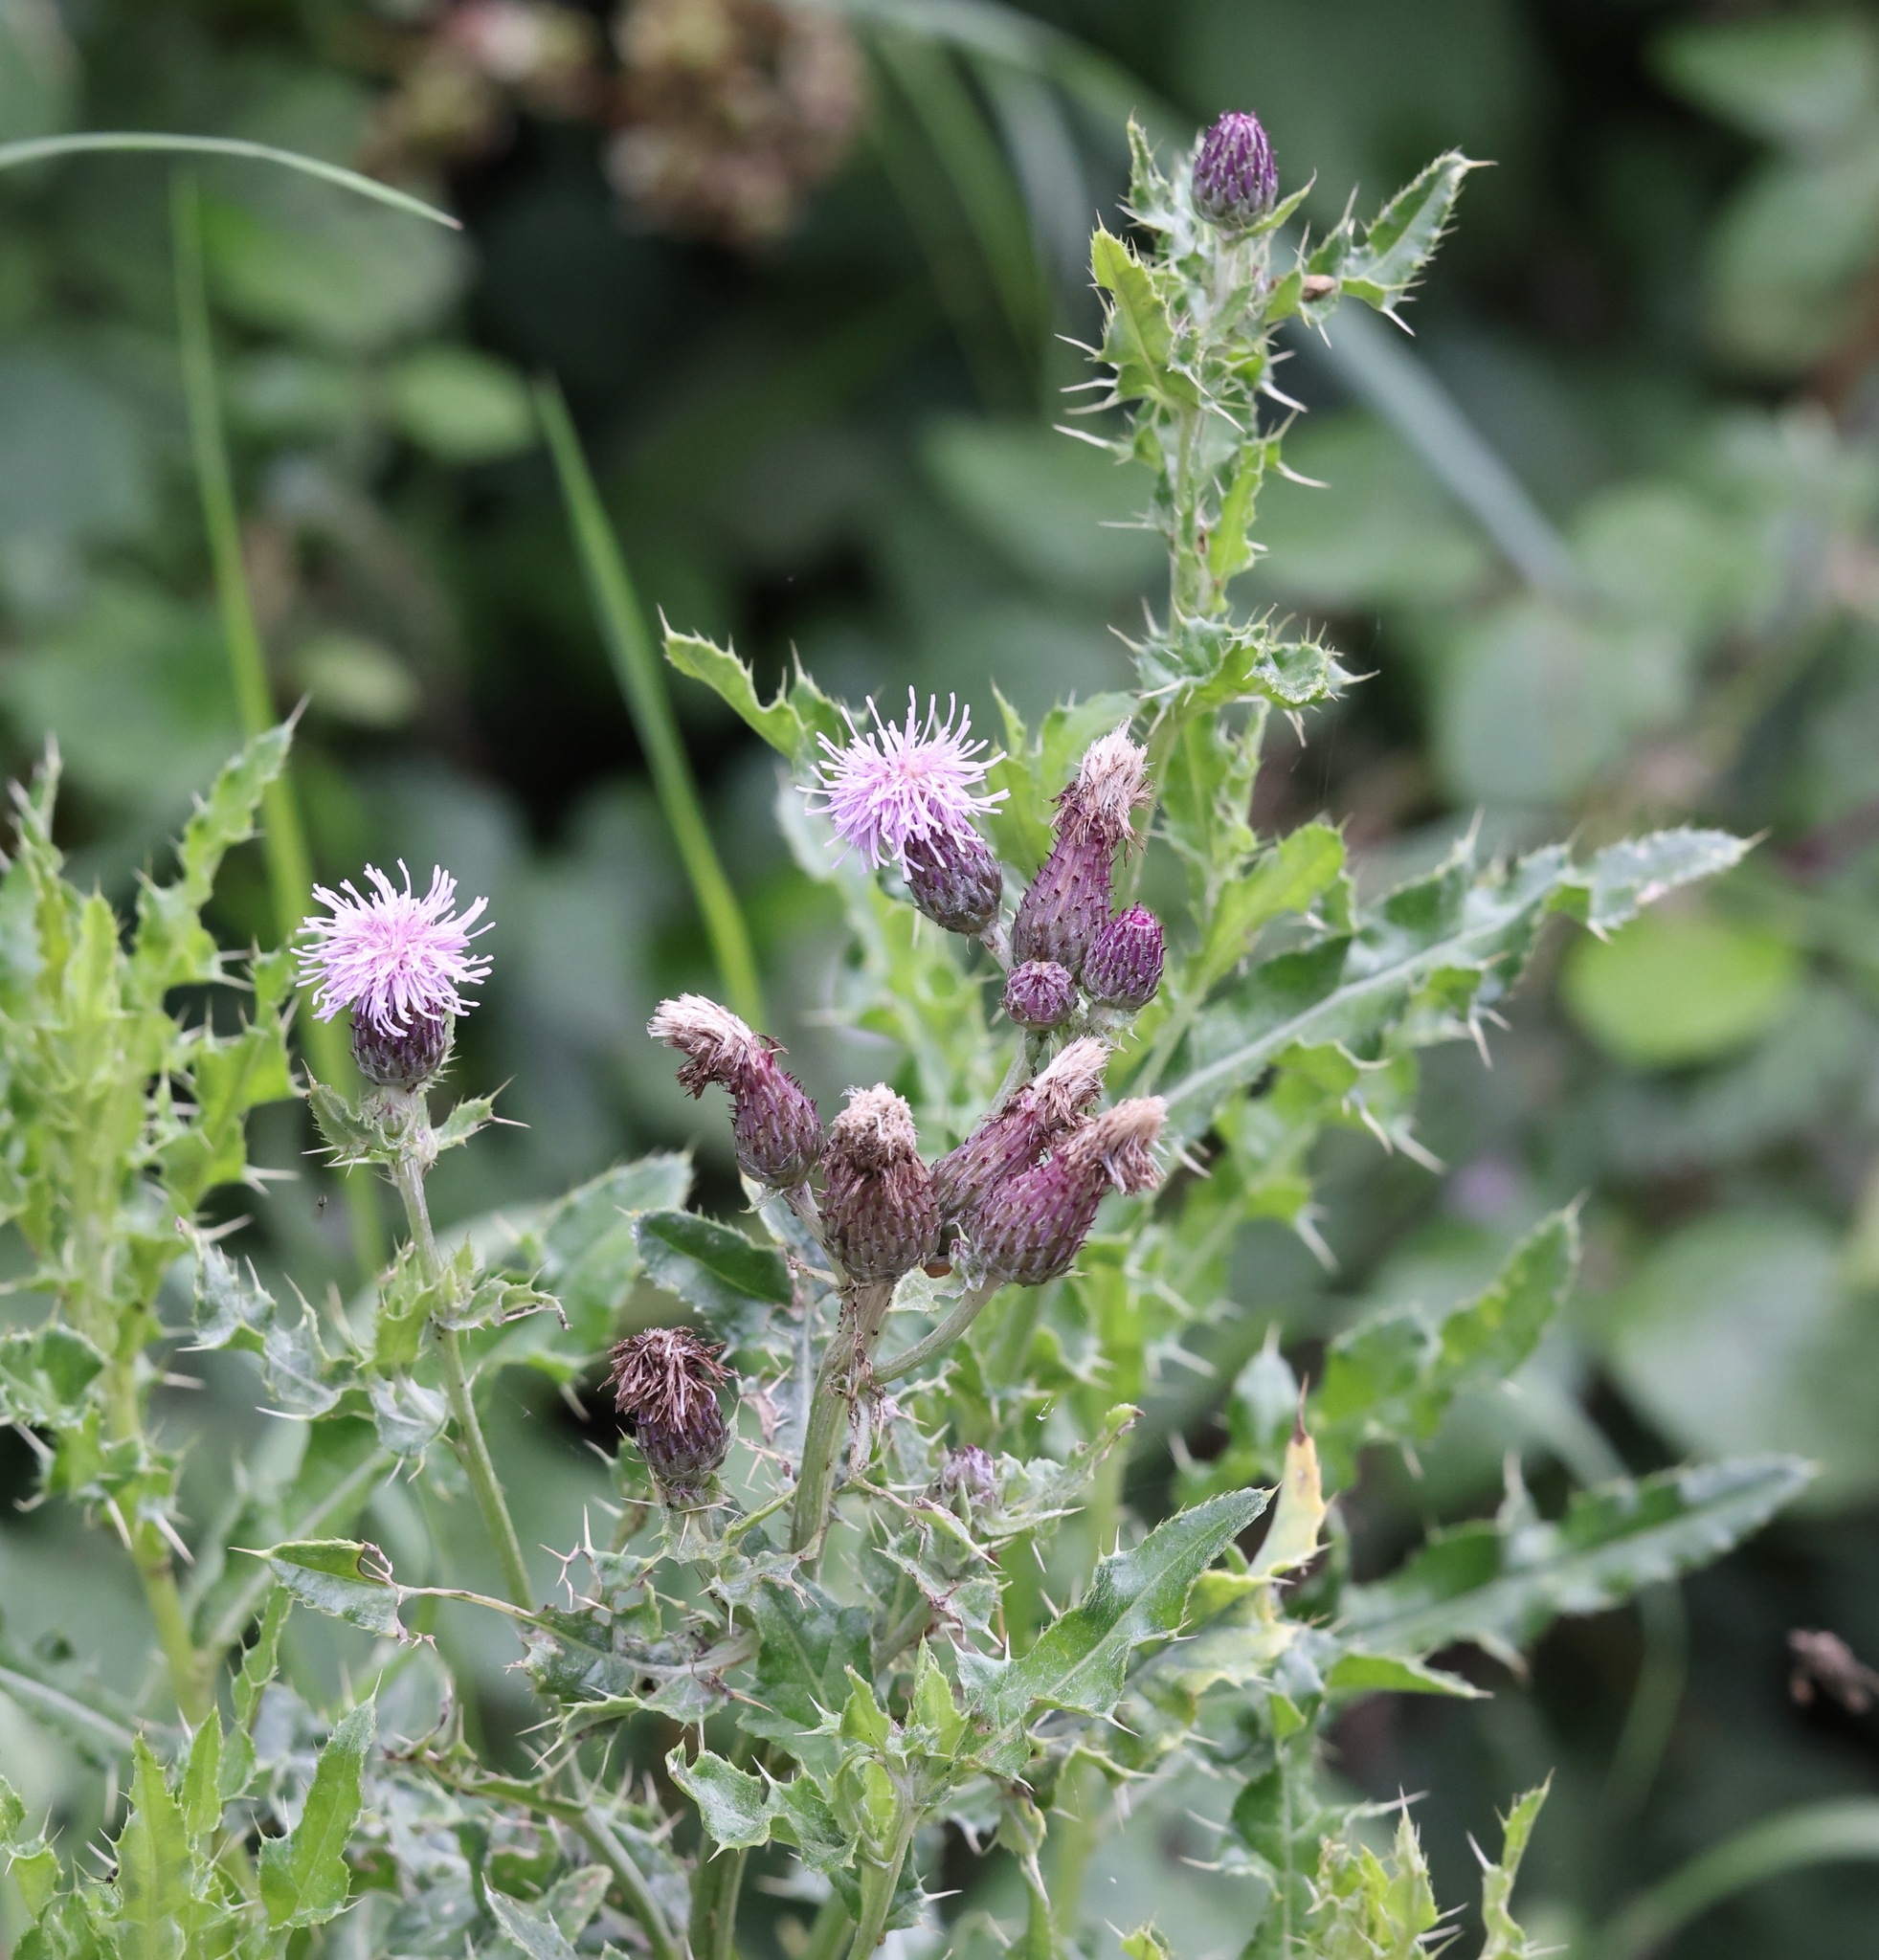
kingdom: Plantae
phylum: Tracheophyta
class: Magnoliopsida
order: Asterales
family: Asteraceae
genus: Cirsium
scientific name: Cirsium arvense
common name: Creeping thistle
